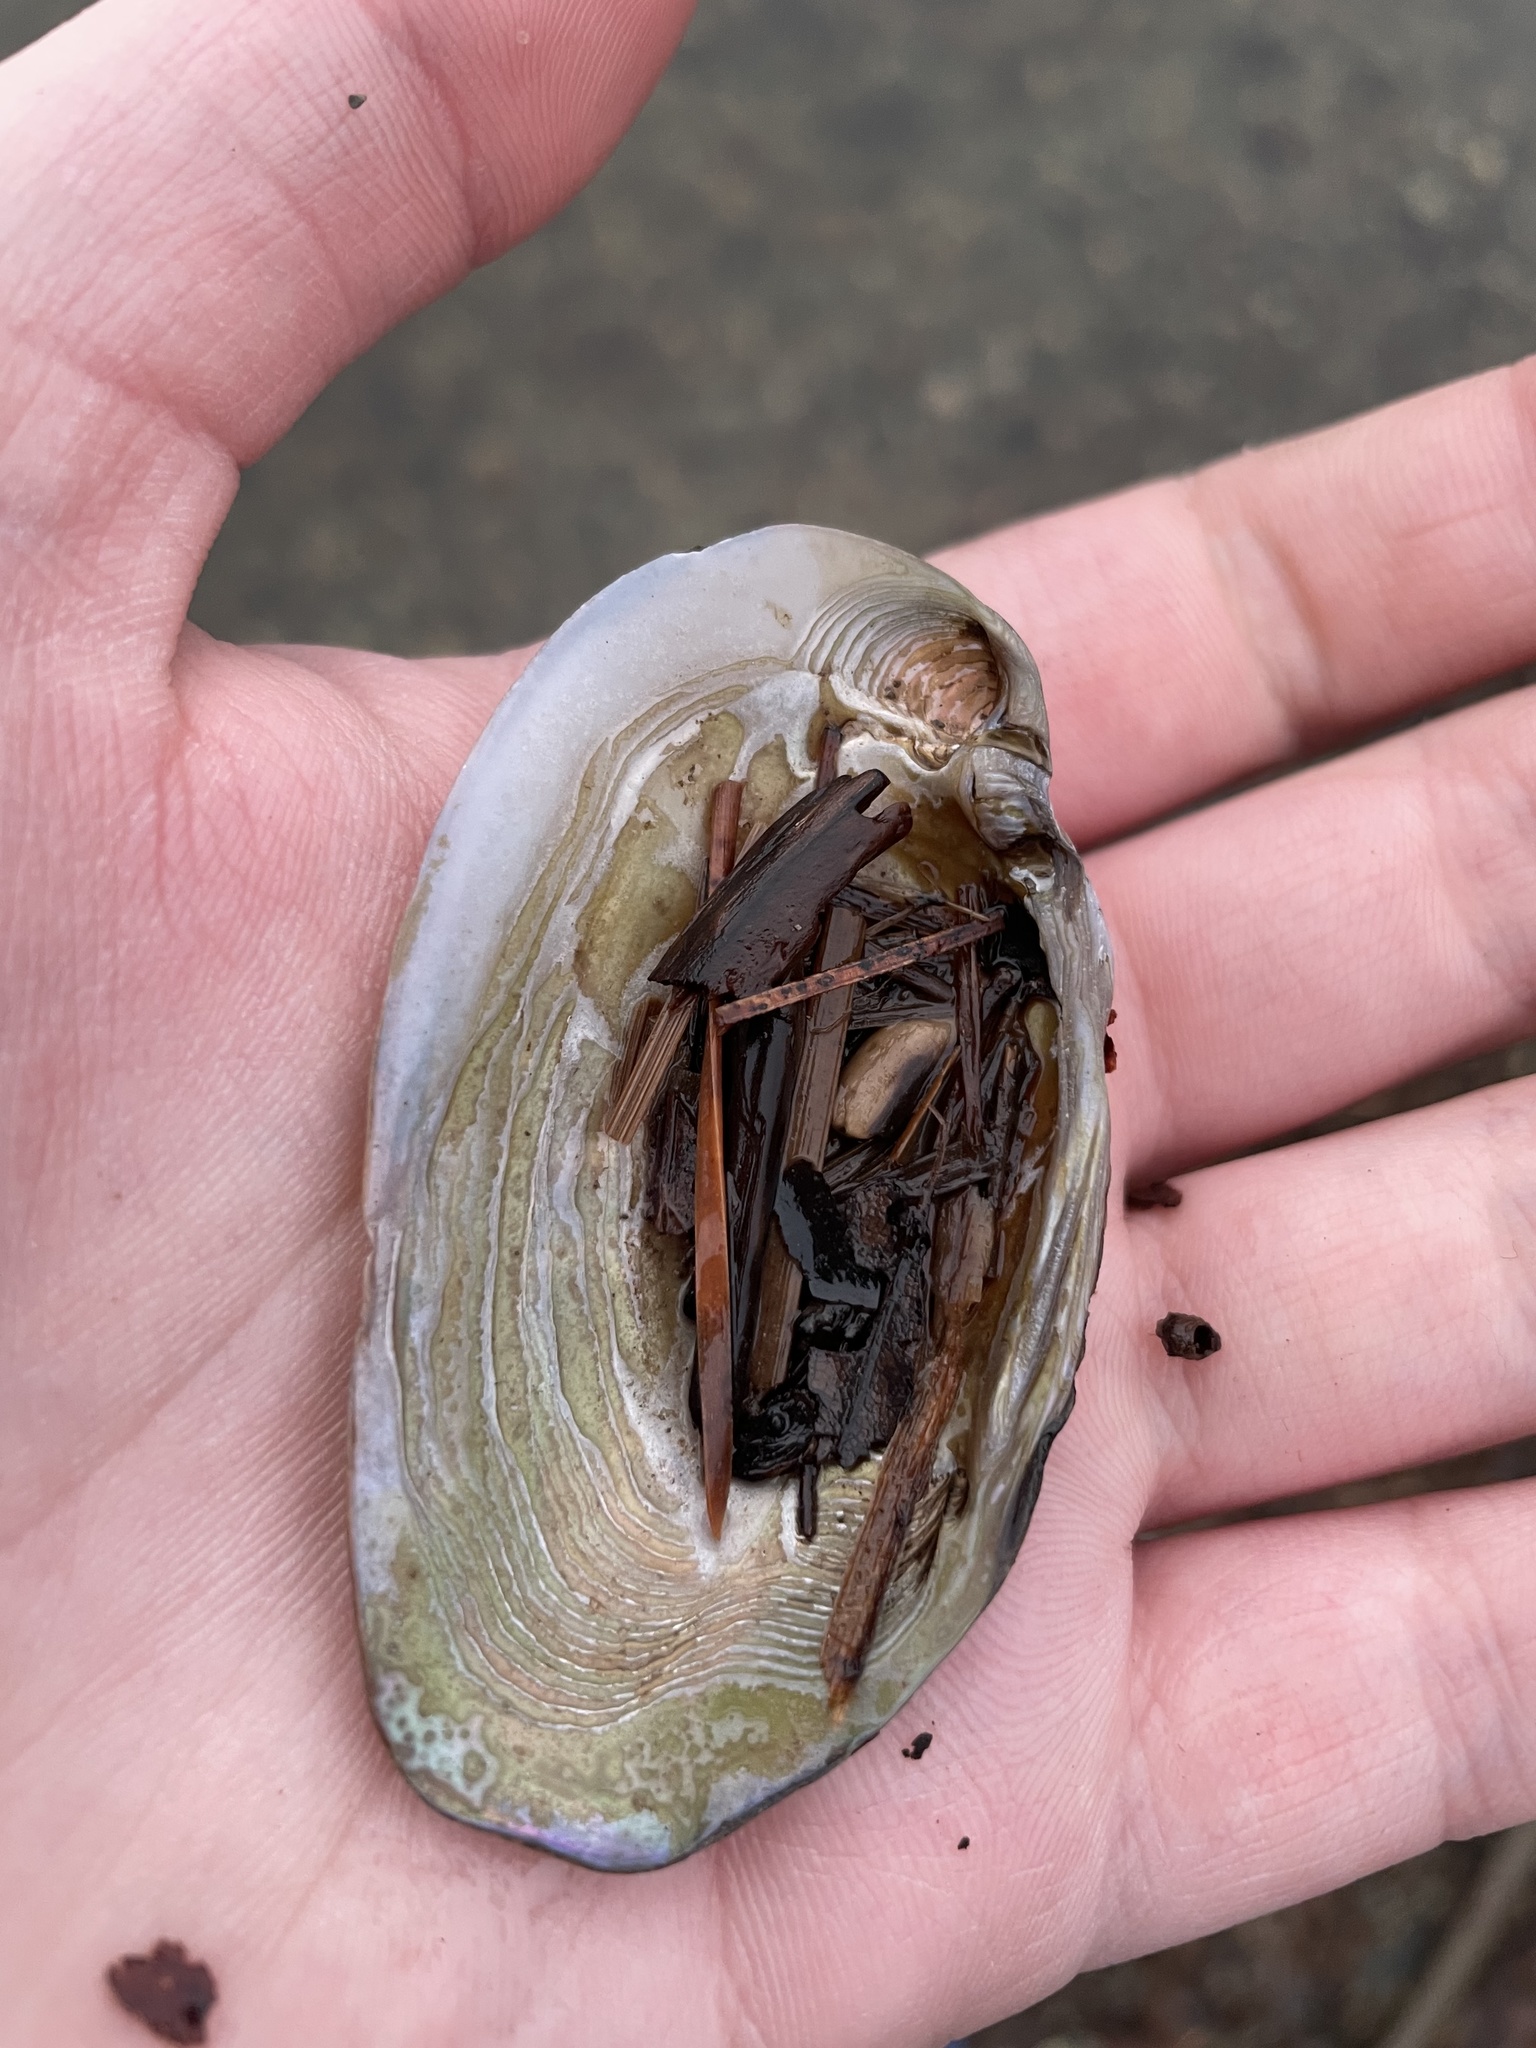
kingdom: Animalia
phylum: Mollusca
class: Bivalvia
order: Unionida
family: Unionidae
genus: Elliptio
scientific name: Elliptio complanata
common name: Eastern elliptio
